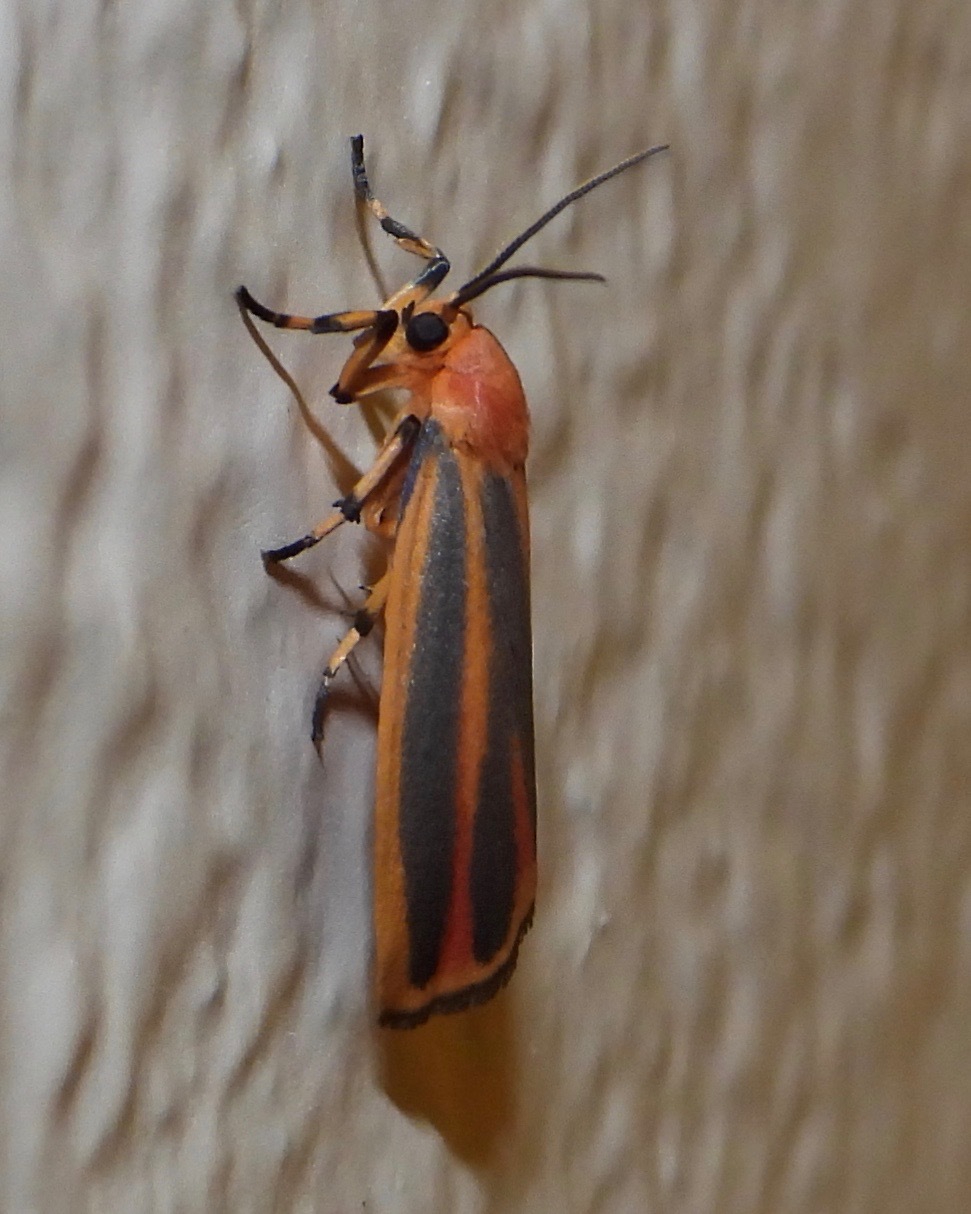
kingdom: Animalia
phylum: Arthropoda
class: Insecta
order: Lepidoptera
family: Erebidae
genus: Hypoprepia
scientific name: Hypoprepia miniata
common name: Scarlet-winged lichen moth
